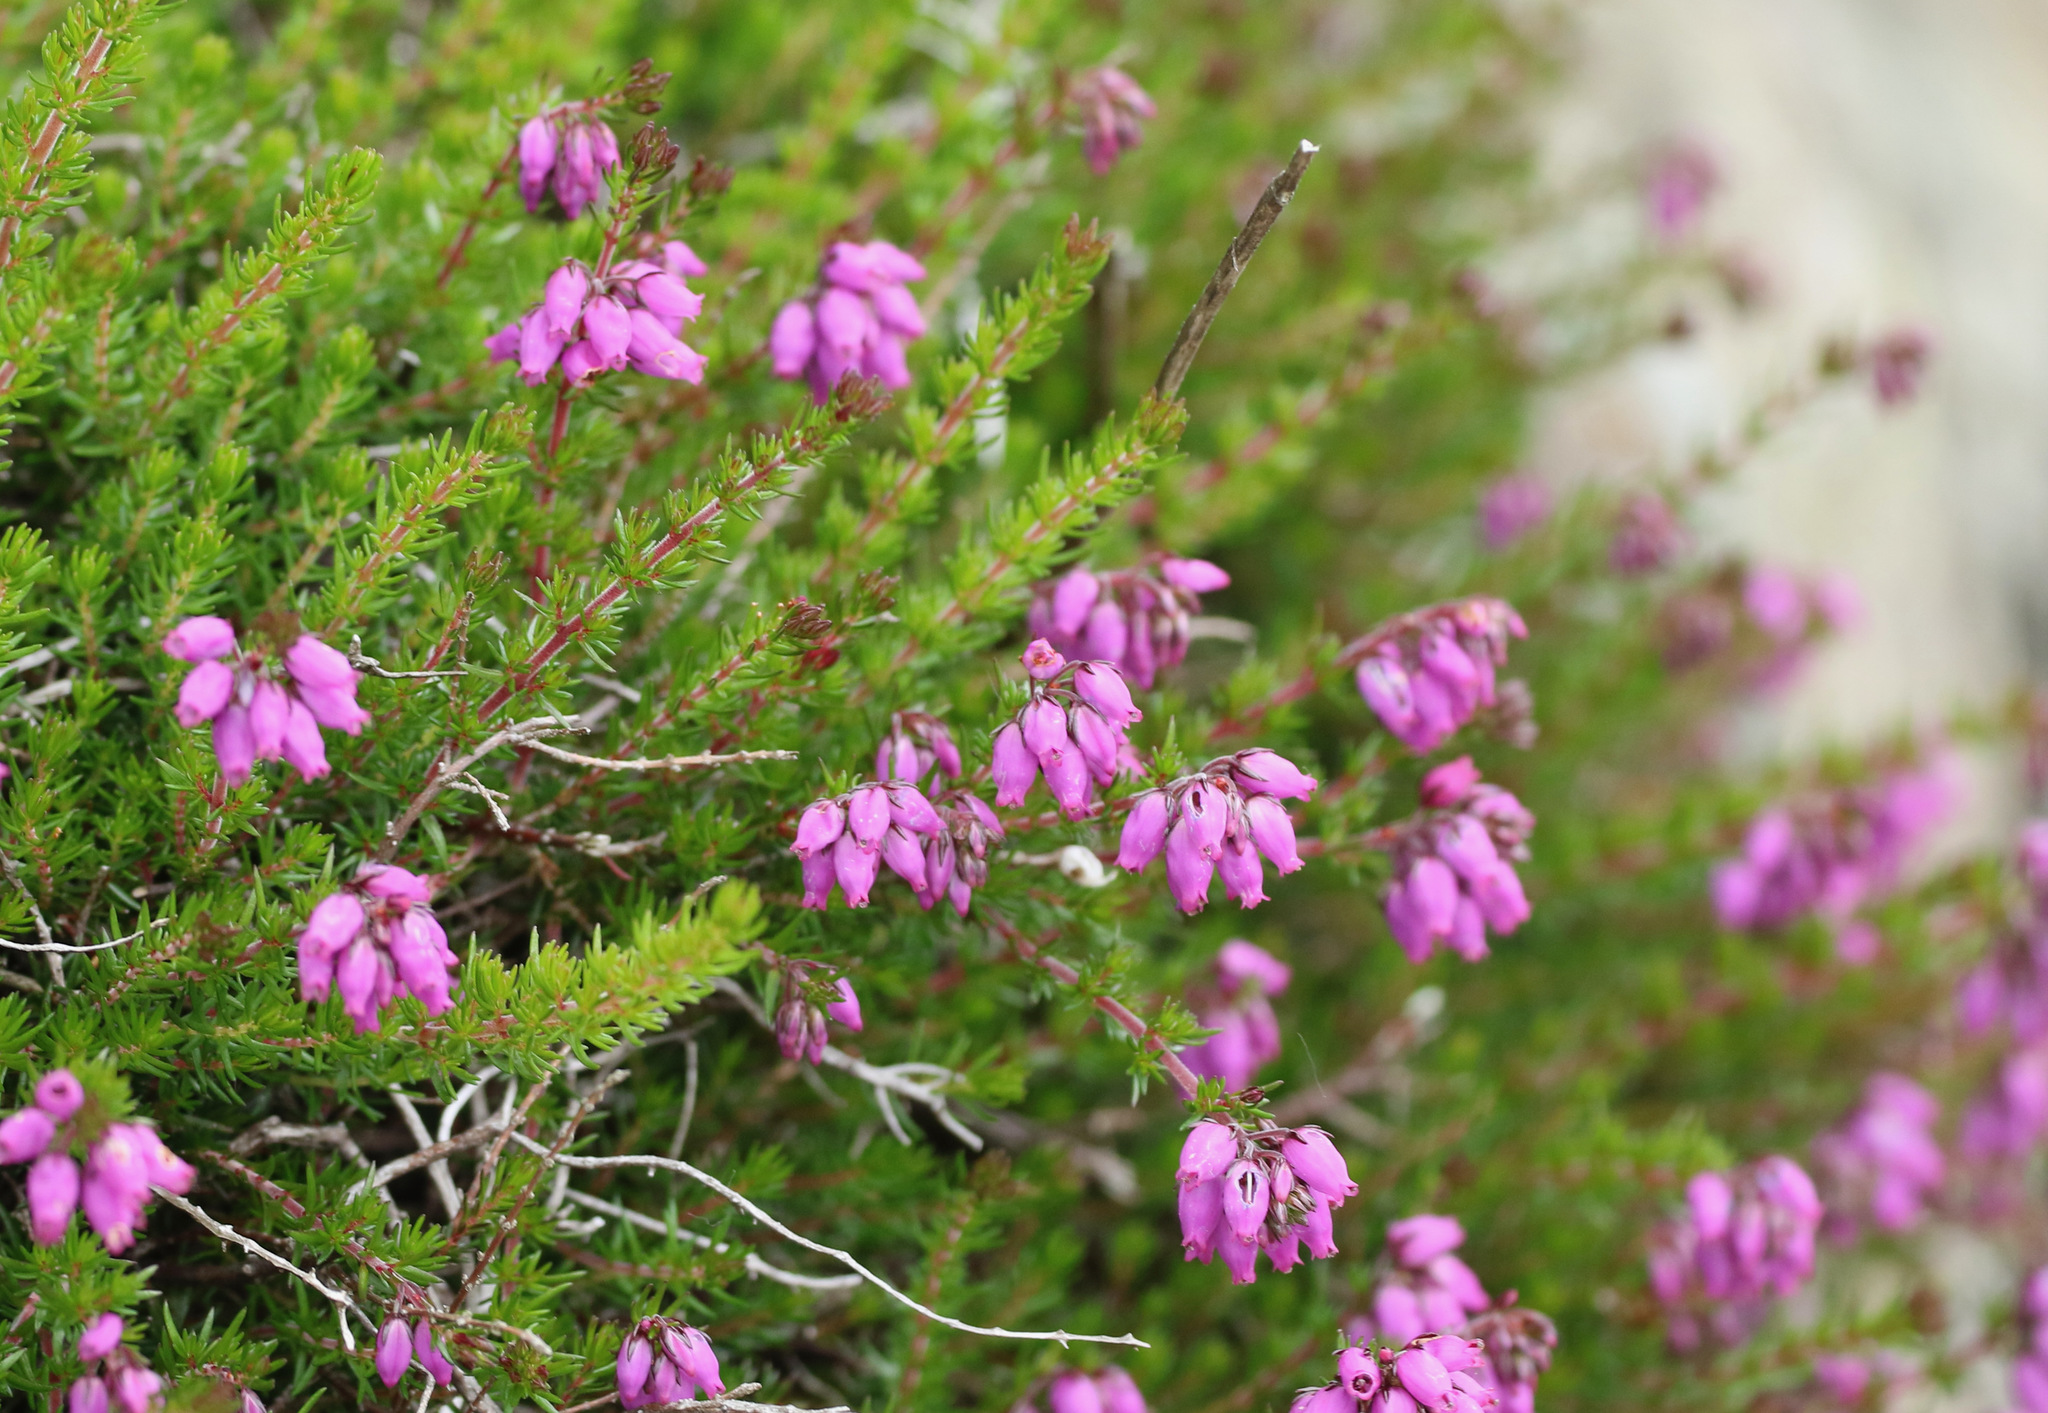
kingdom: Plantae
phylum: Tracheophyta
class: Magnoliopsida
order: Ericales
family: Ericaceae
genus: Erica
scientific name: Erica cinerea
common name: Bell heather
